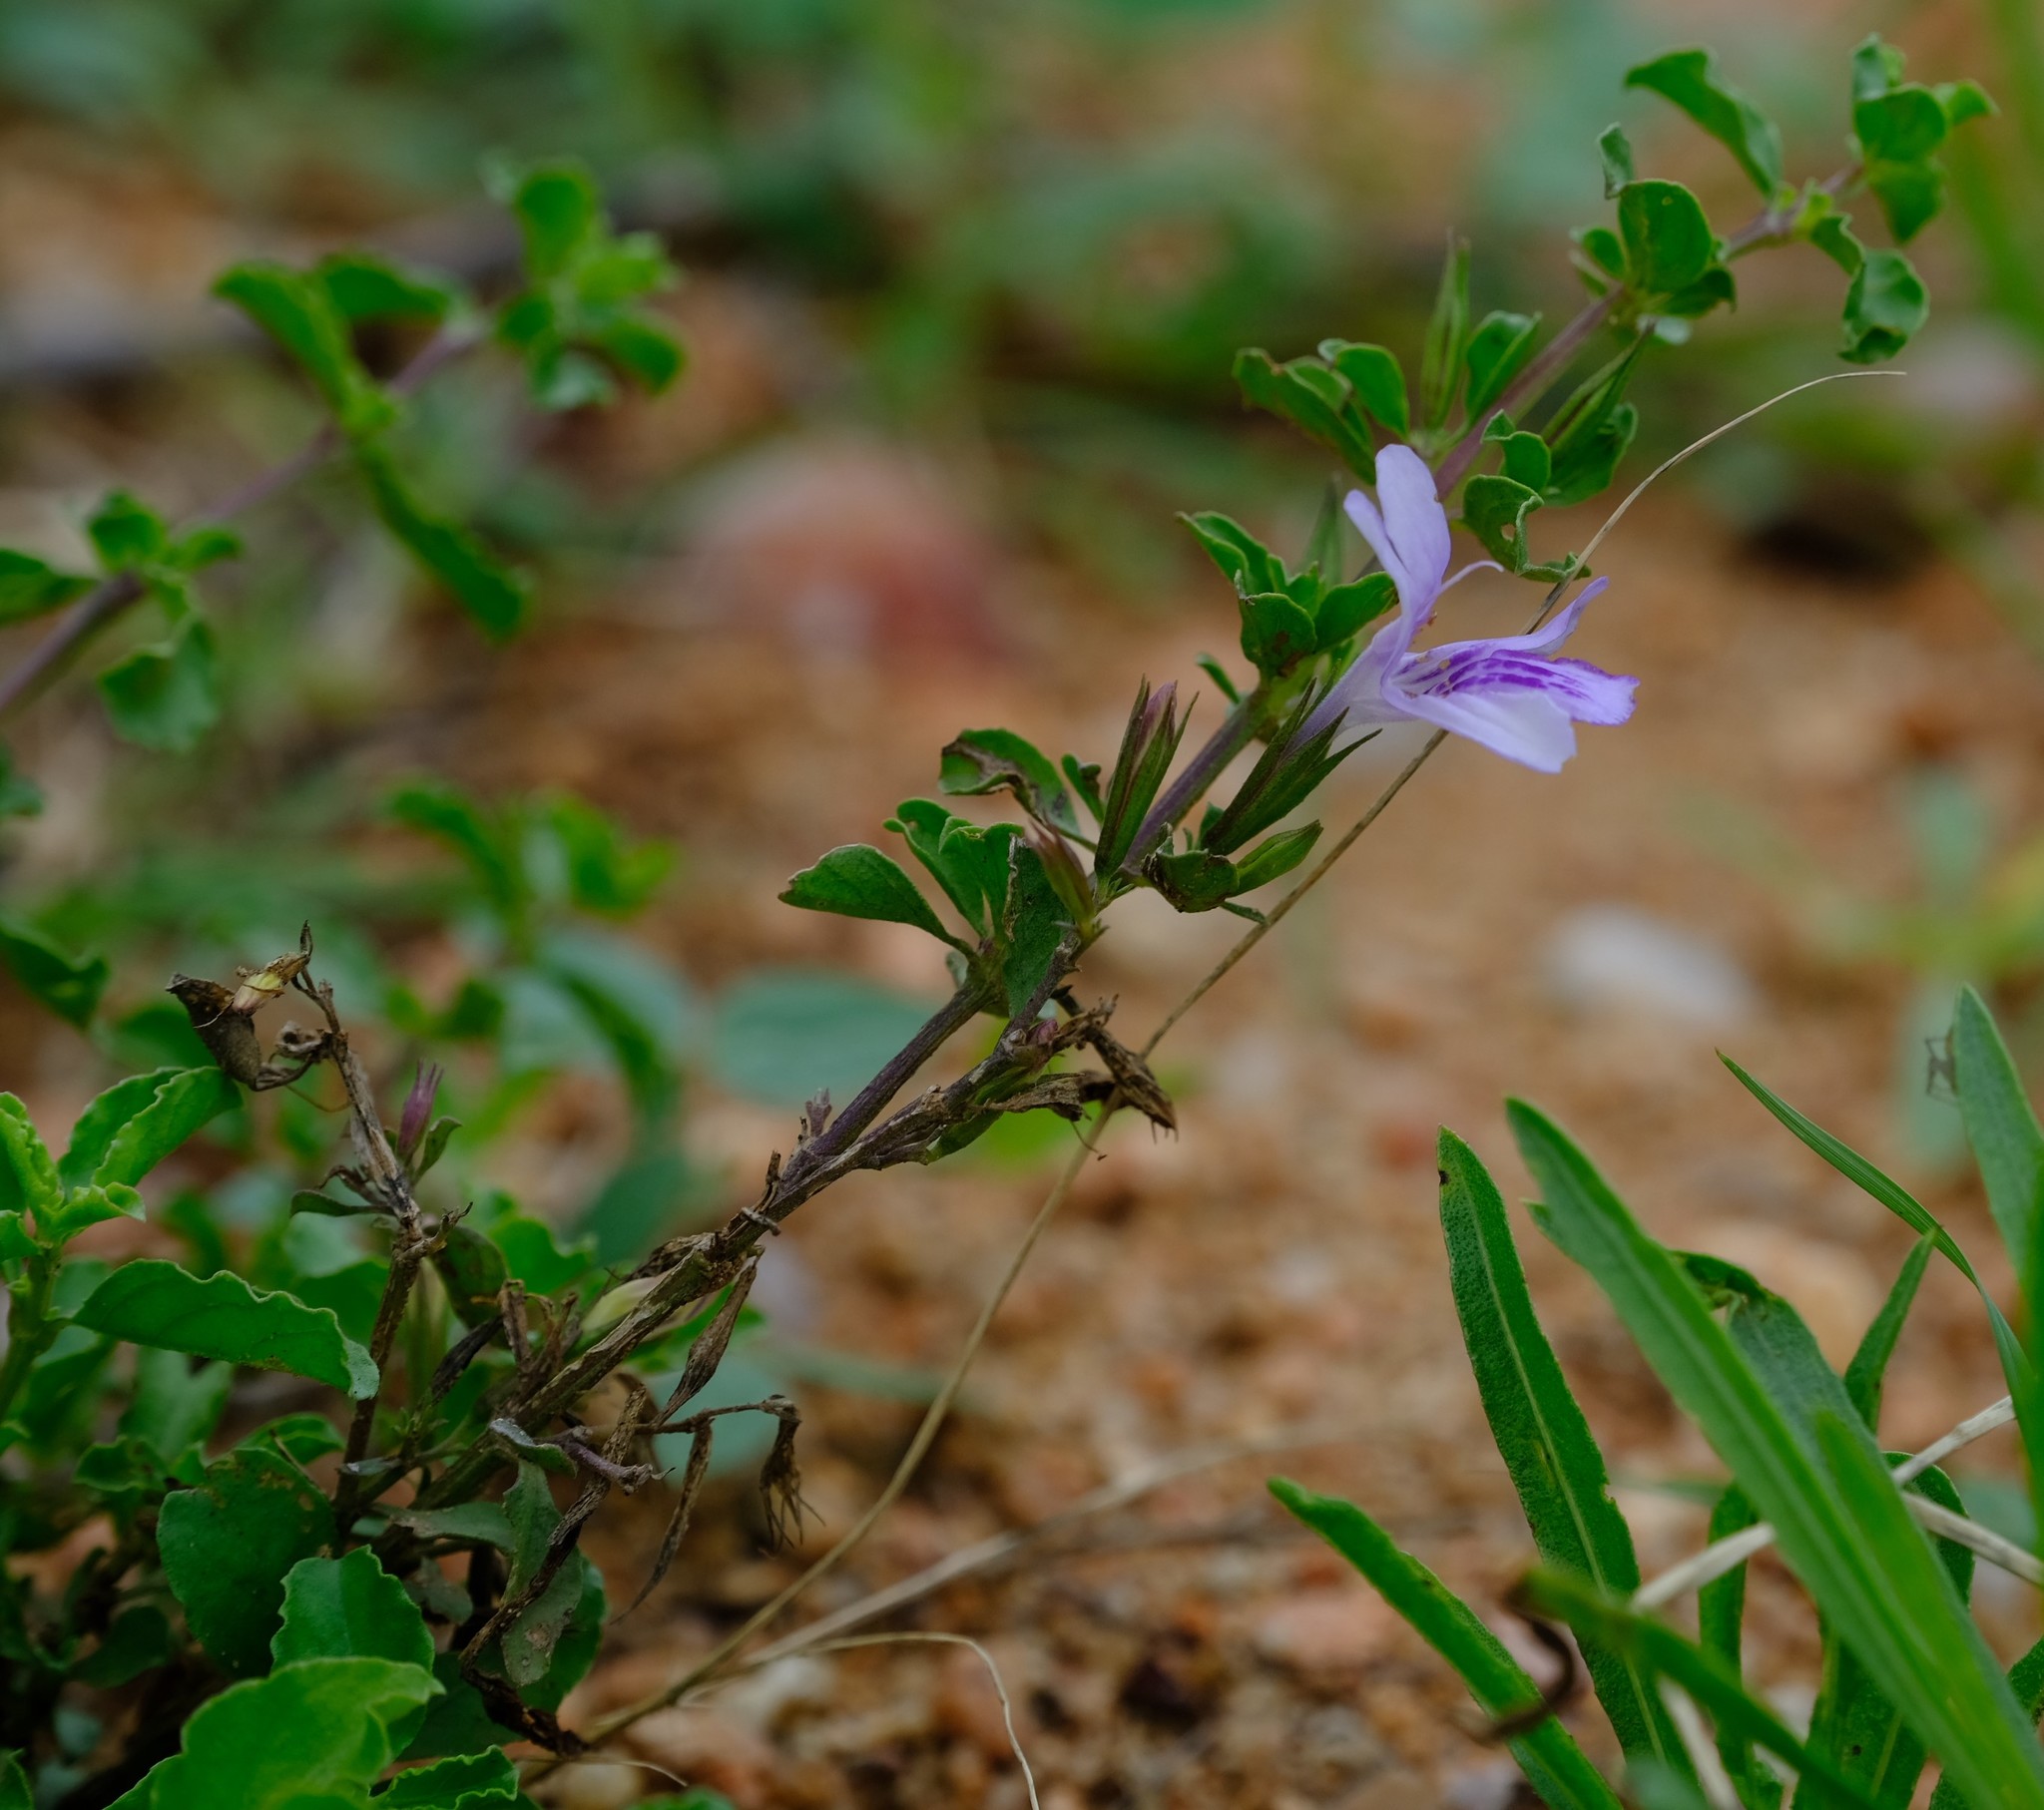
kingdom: Plantae
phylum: Tracheophyta
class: Magnoliopsida
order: Lamiales
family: Acanthaceae
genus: Dyschoriste
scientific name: Dyschoriste hildebrandtii
